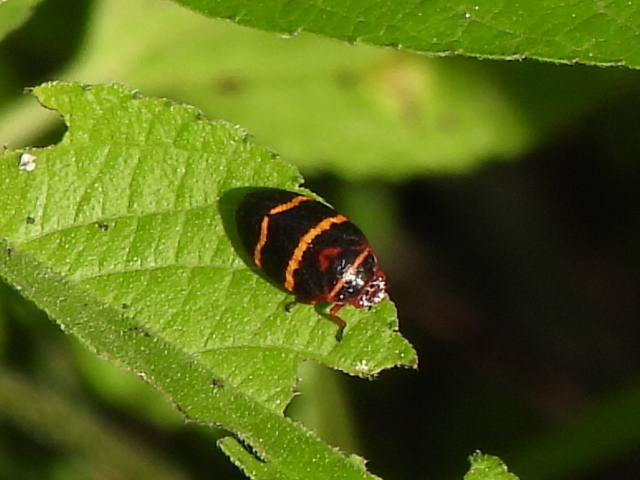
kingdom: Animalia
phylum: Arthropoda
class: Insecta
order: Hemiptera
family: Cercopidae
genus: Prosapia
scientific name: Prosapia bicincta
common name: Twolined spittlebug
